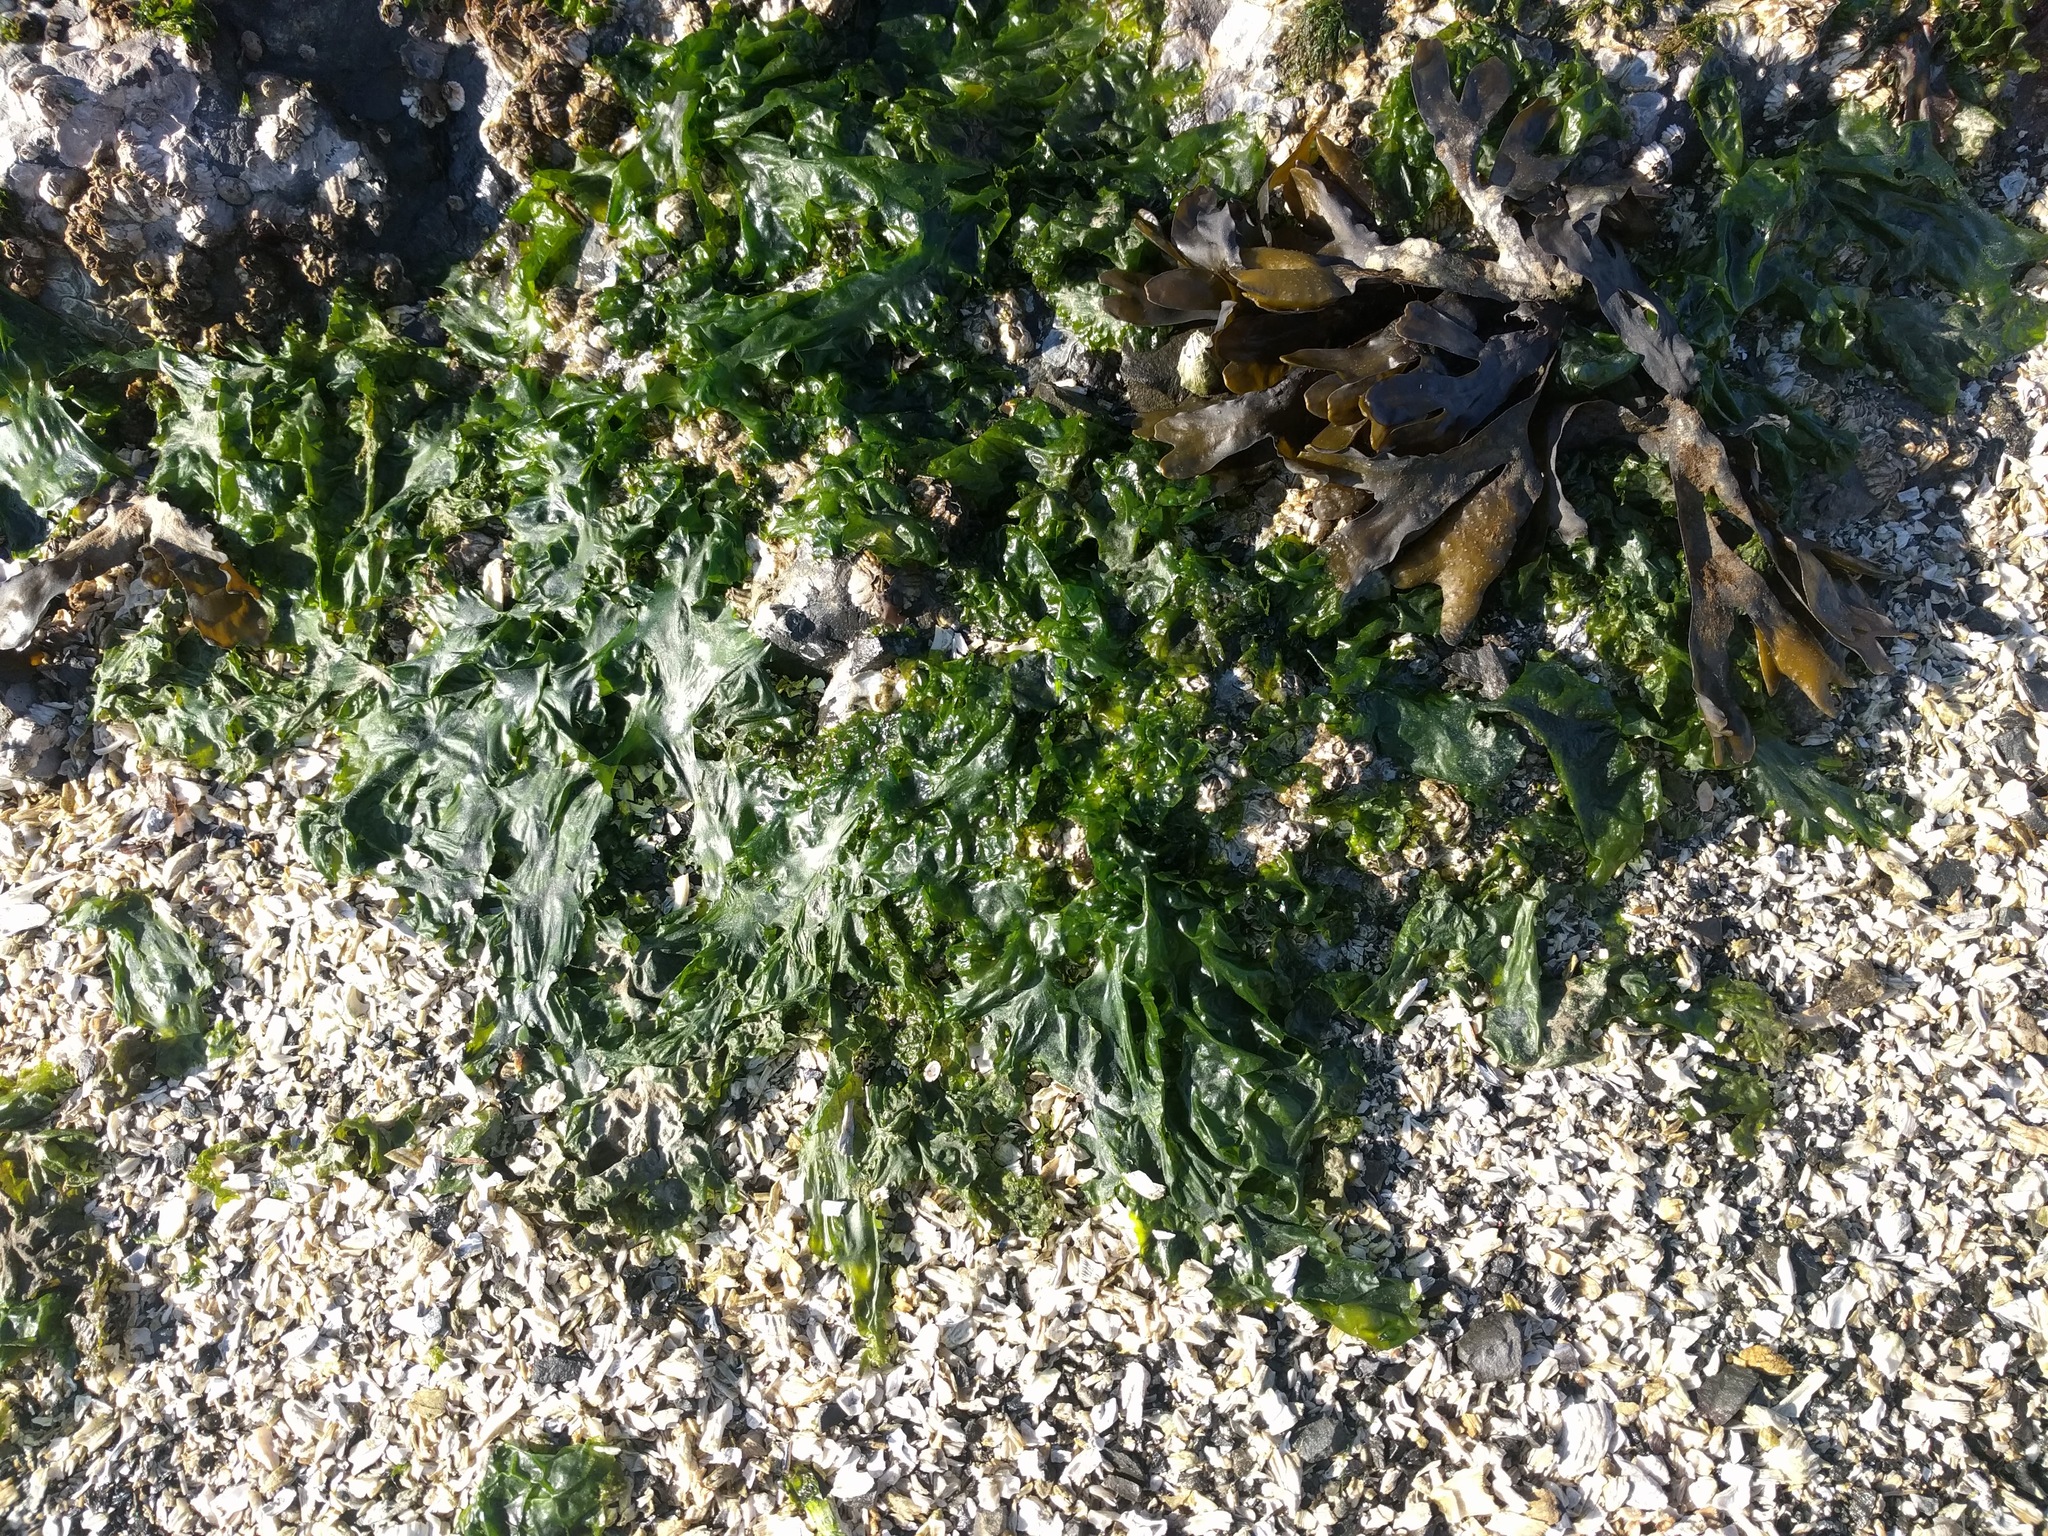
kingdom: Chromista
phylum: Ochrophyta
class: Phaeophyceae
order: Fucales
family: Fucaceae
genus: Fucus
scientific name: Fucus distichus
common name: Rockweed
